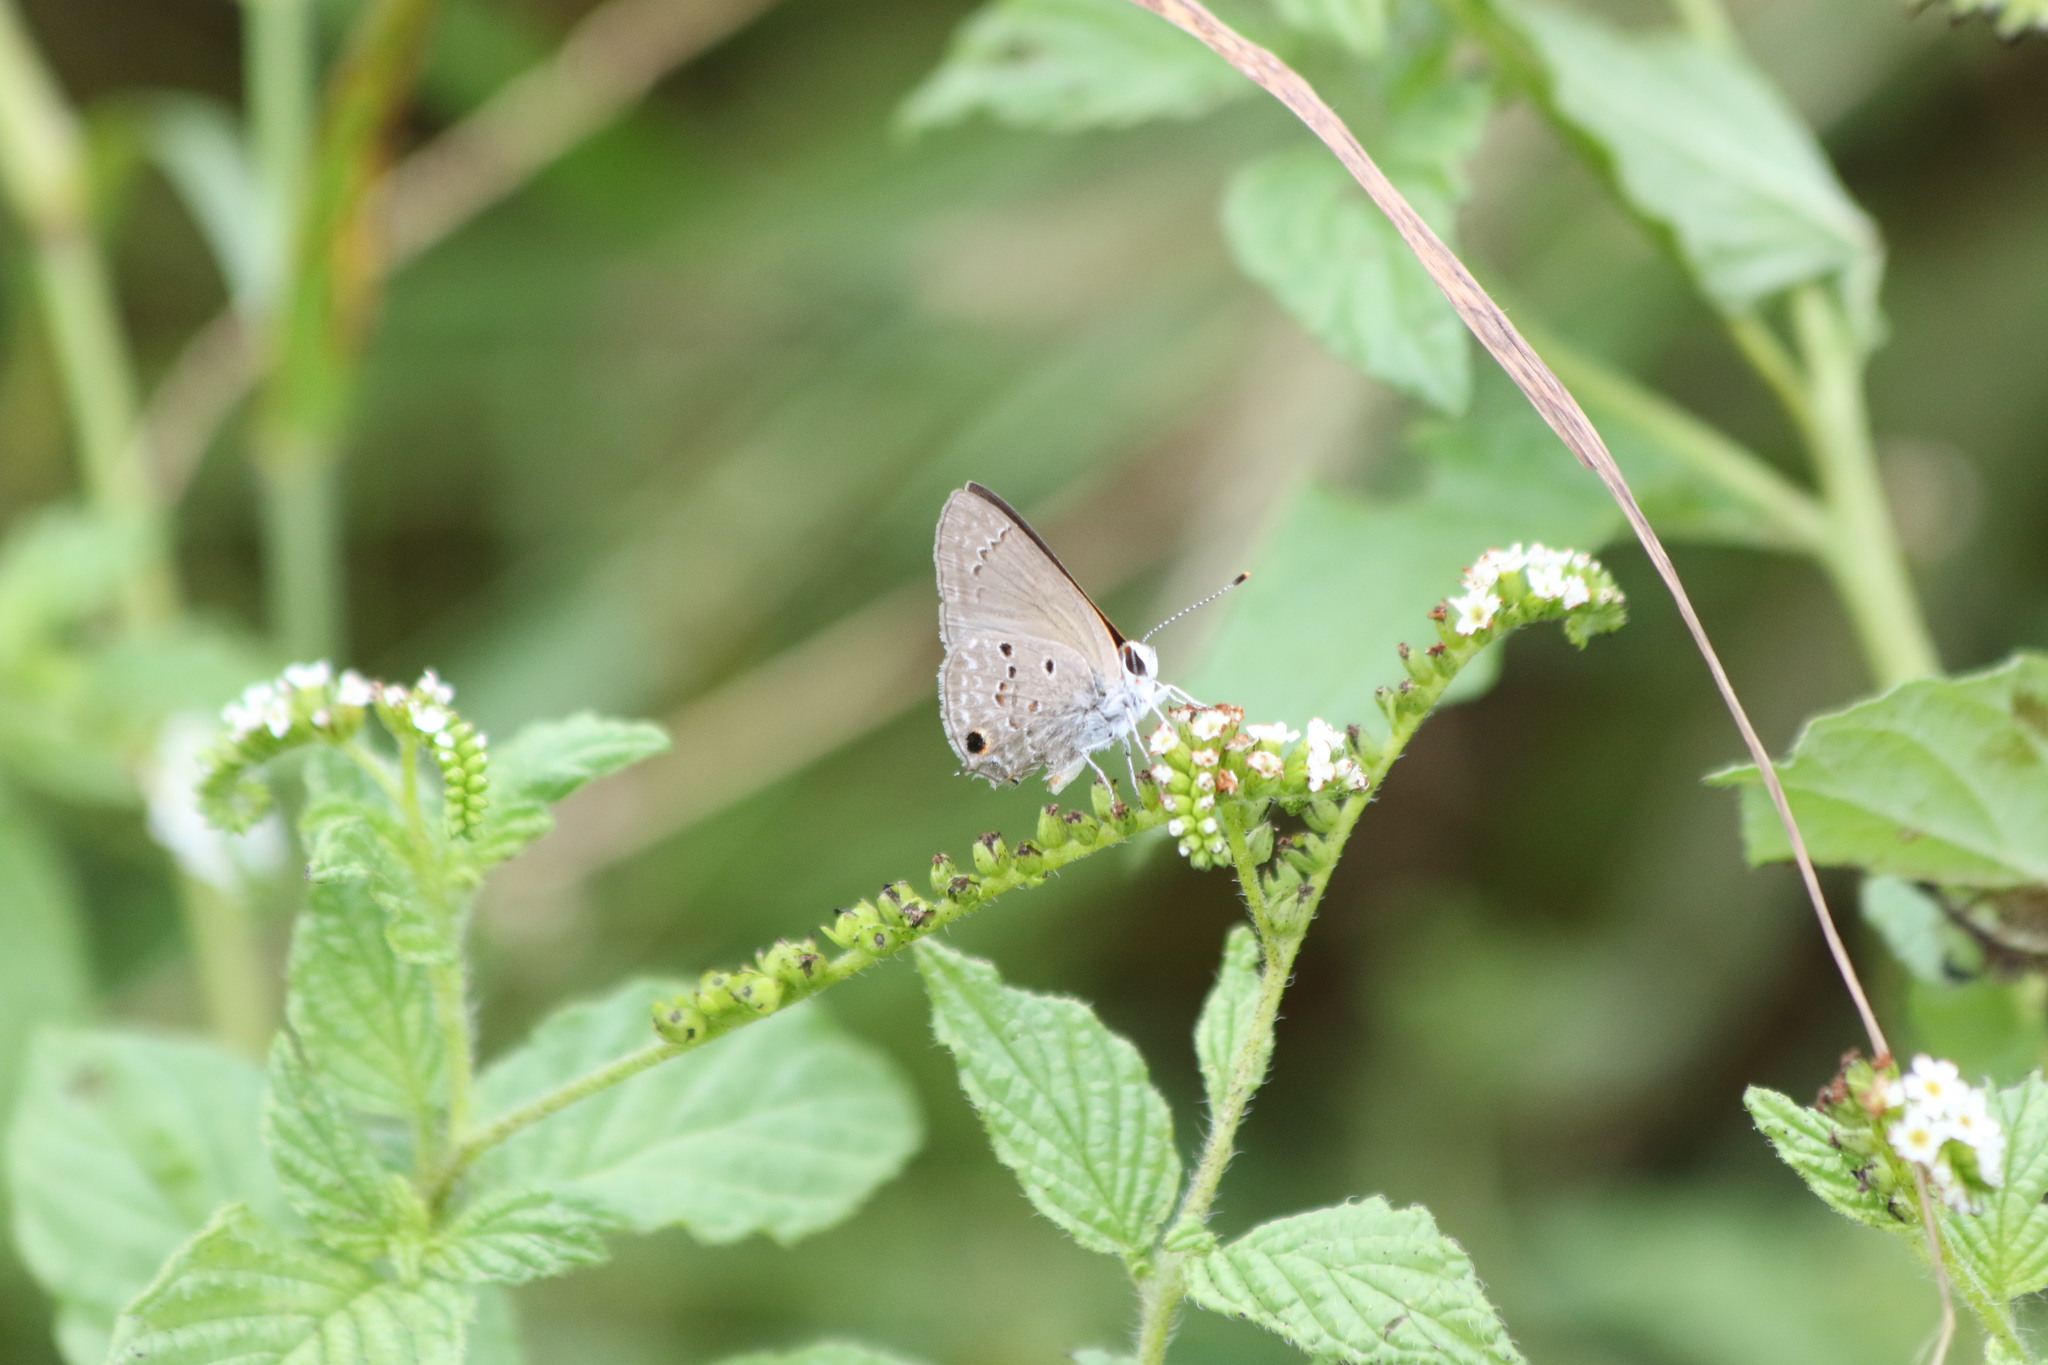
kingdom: Animalia
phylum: Arthropoda
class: Insecta
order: Lepidoptera
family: Lycaenidae
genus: Callicista
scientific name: Callicista columella
